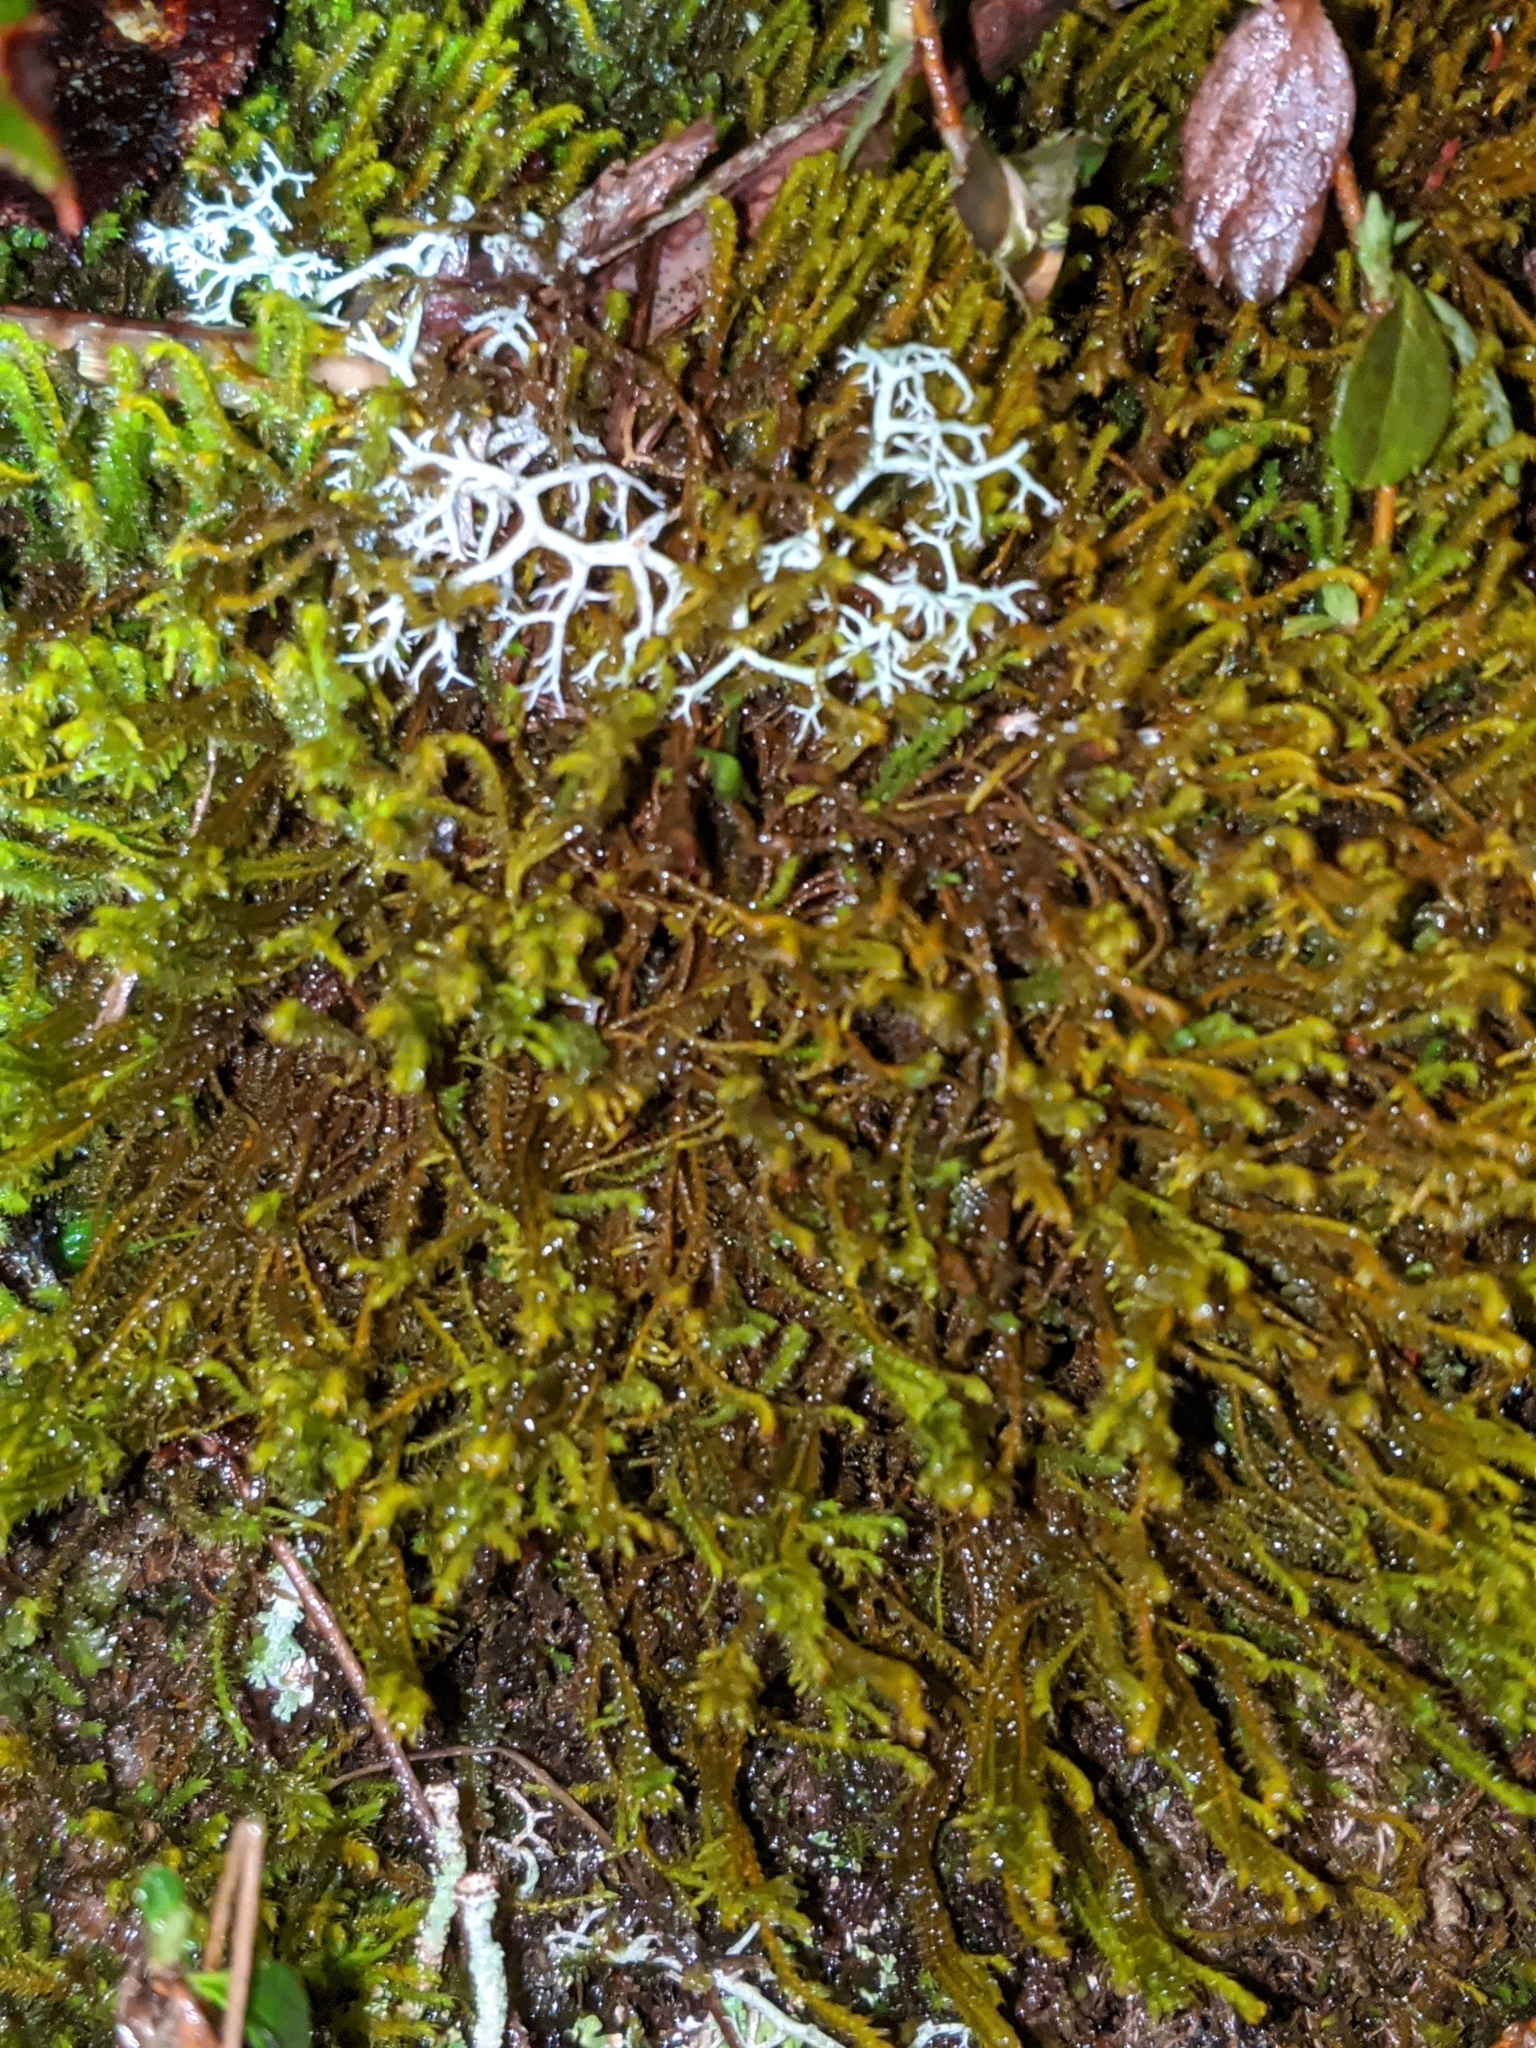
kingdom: Plantae
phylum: Marchantiophyta
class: Jungermanniopsida
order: Jungermanniales
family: Herbertaceae
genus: Herbertus
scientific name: Herbertus aduncus
